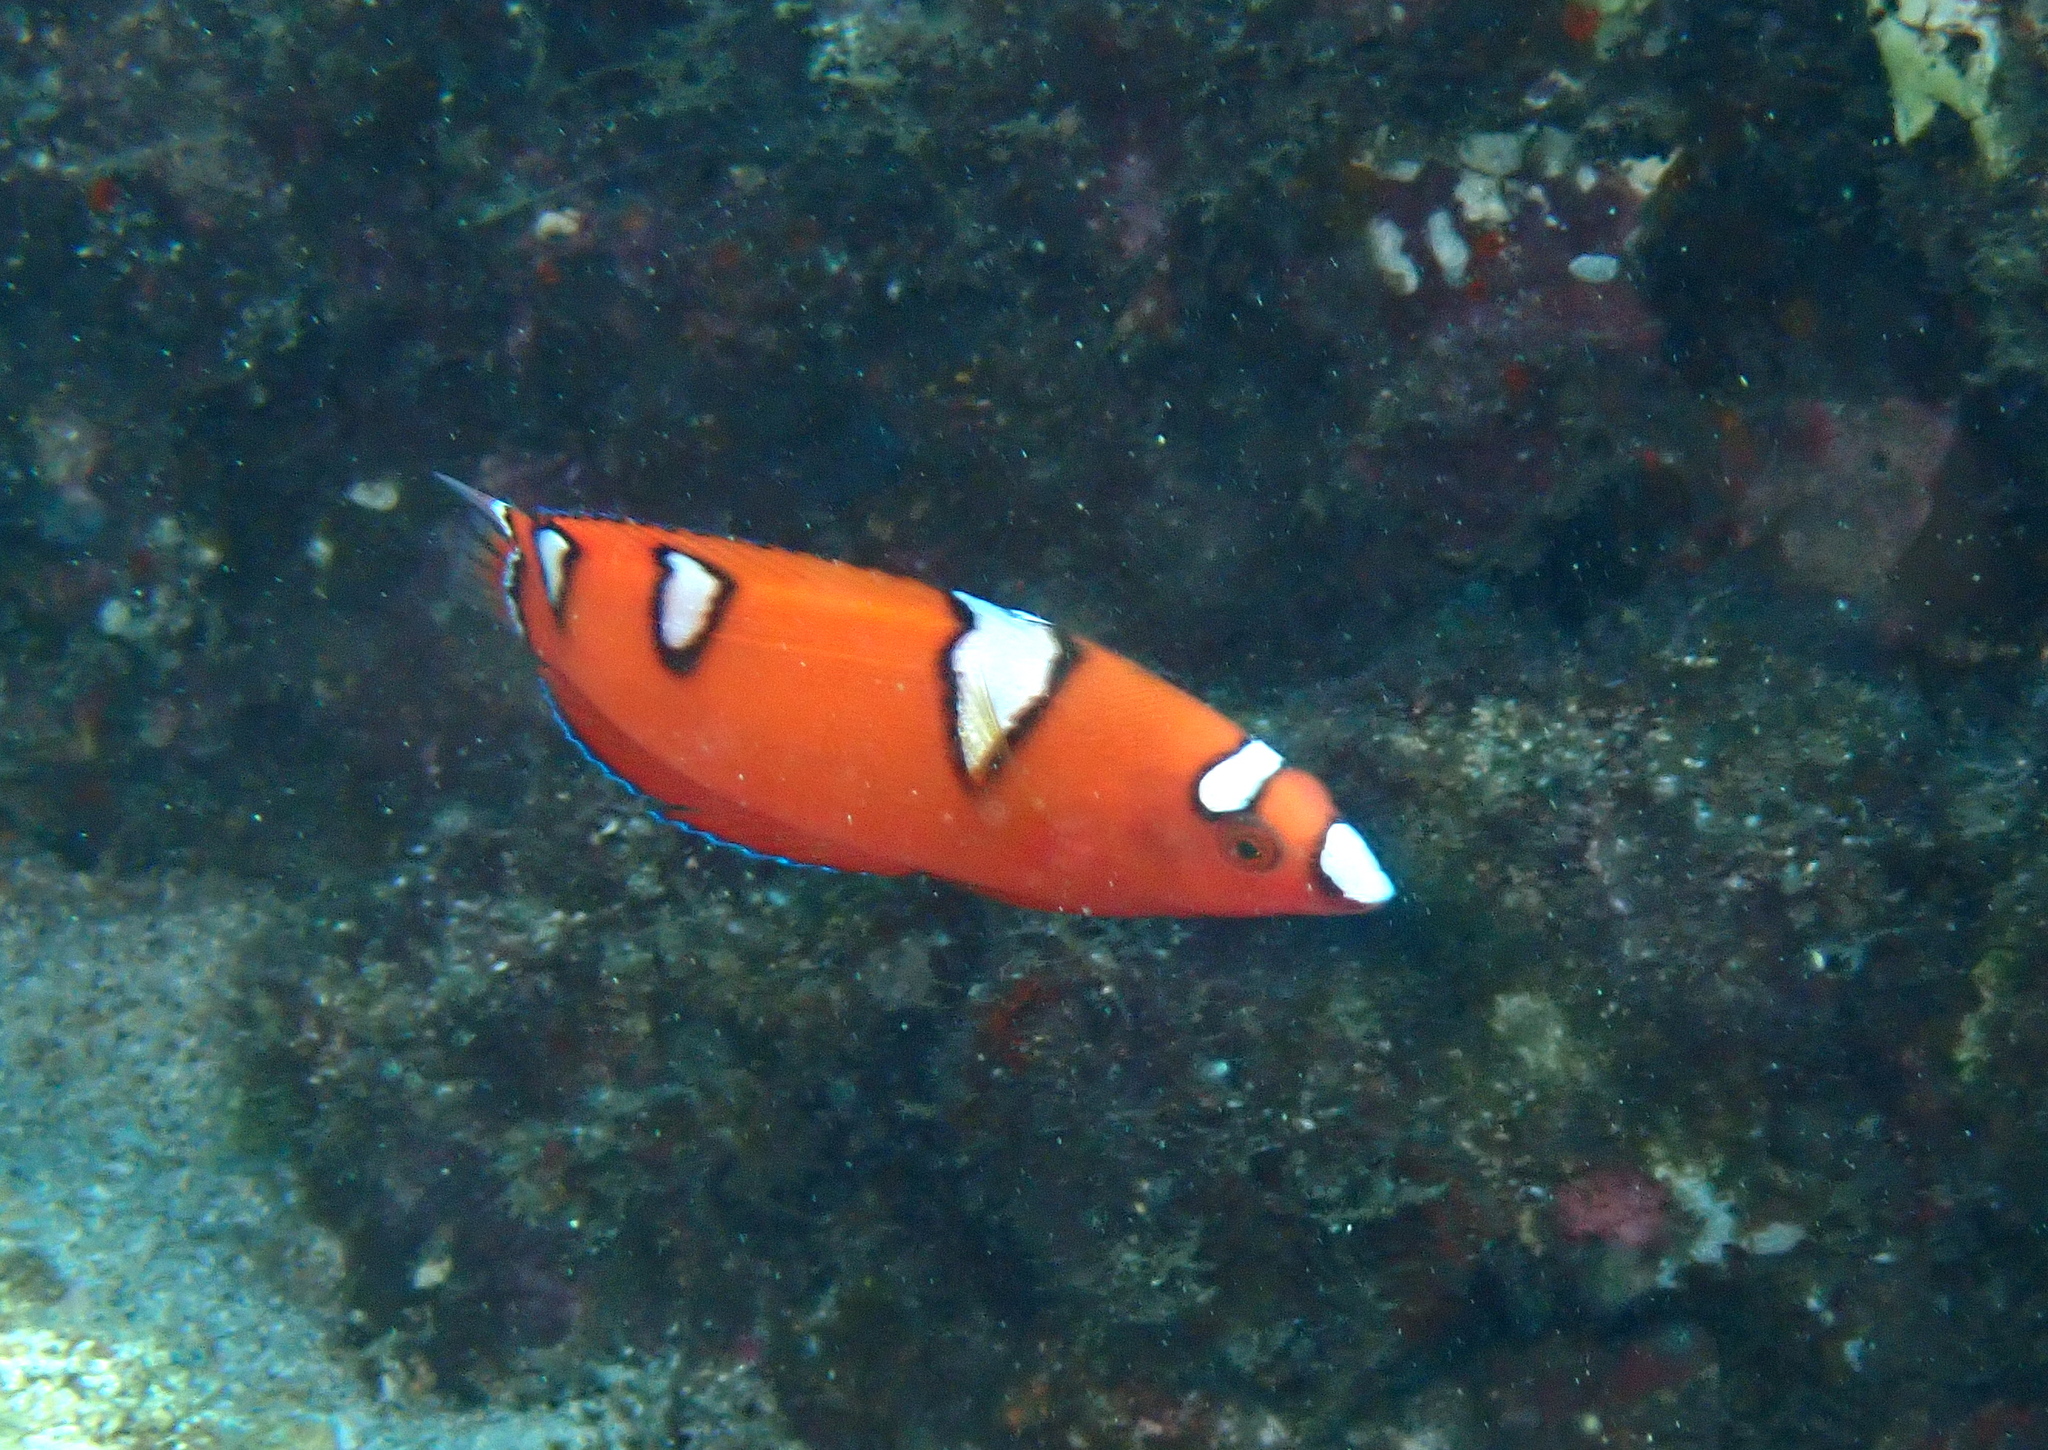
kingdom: Animalia
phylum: Chordata
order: Perciformes
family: Labridae
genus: Coris
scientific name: Coris gaimard
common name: Yellowtail coris
